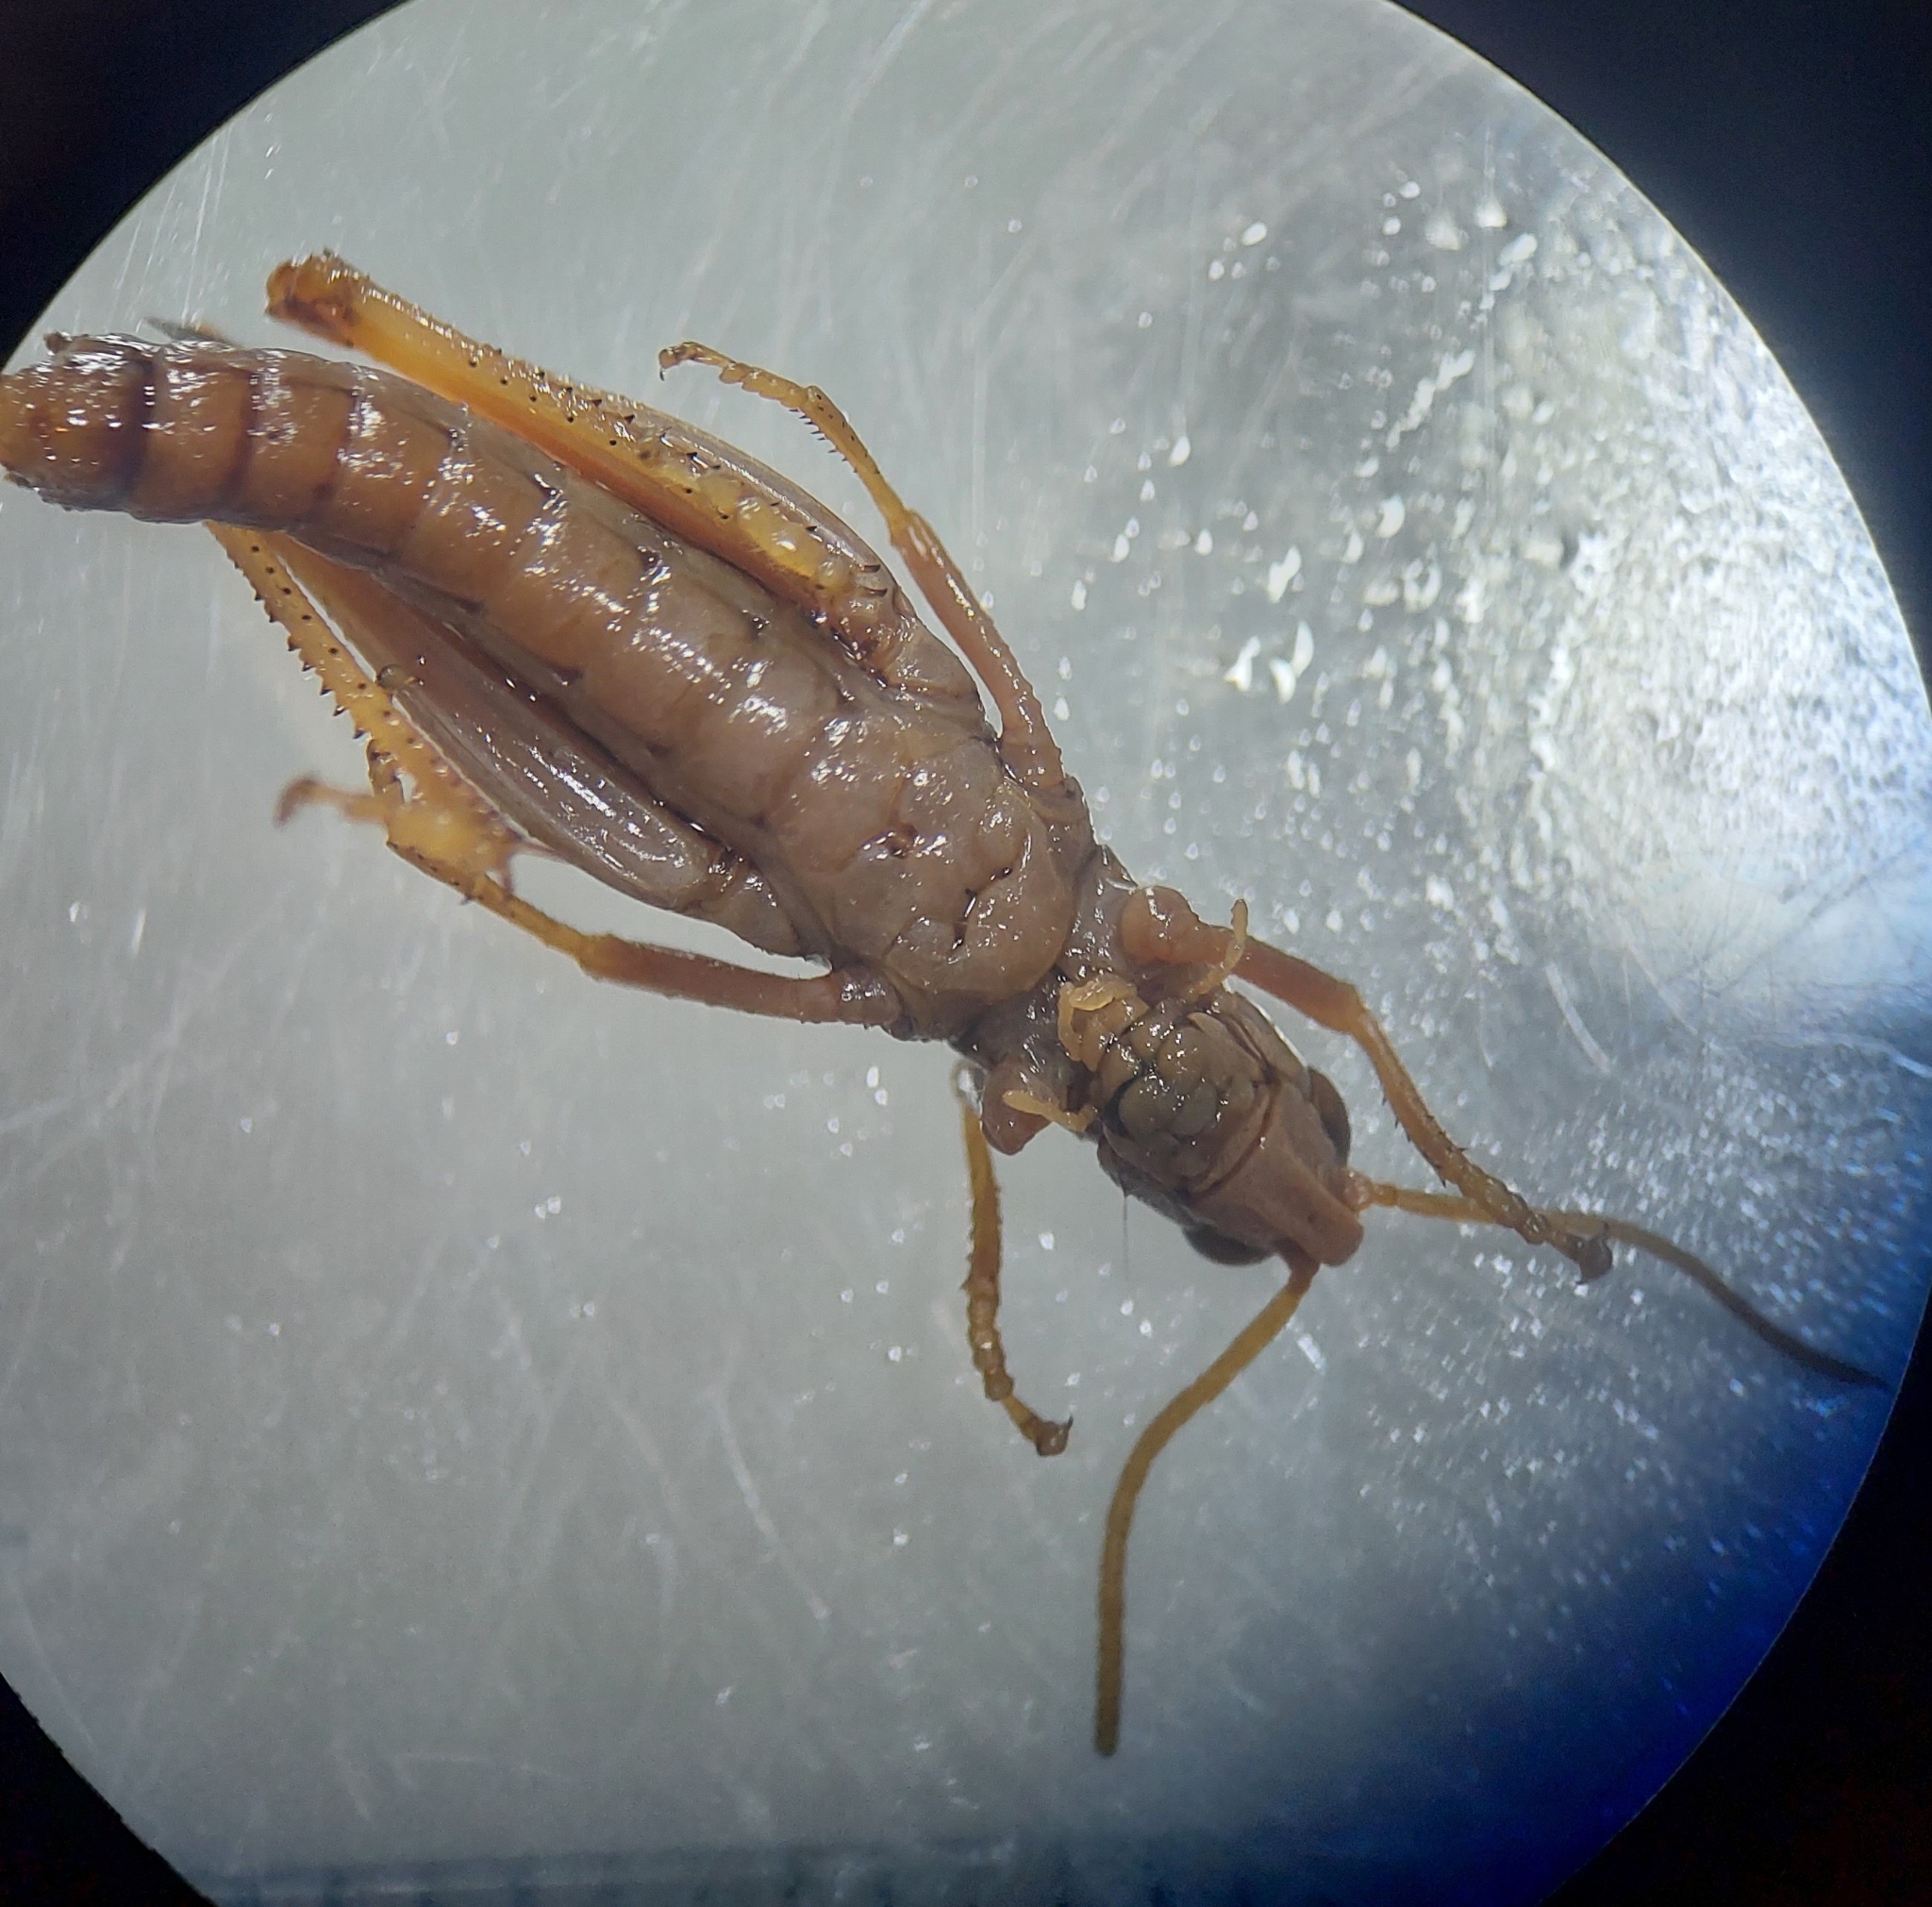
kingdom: Animalia
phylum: Arthropoda
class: Insecta
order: Orthoptera
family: Acrididae
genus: Omocestus
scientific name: Omocestus viridulus
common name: Common green grasshopper
